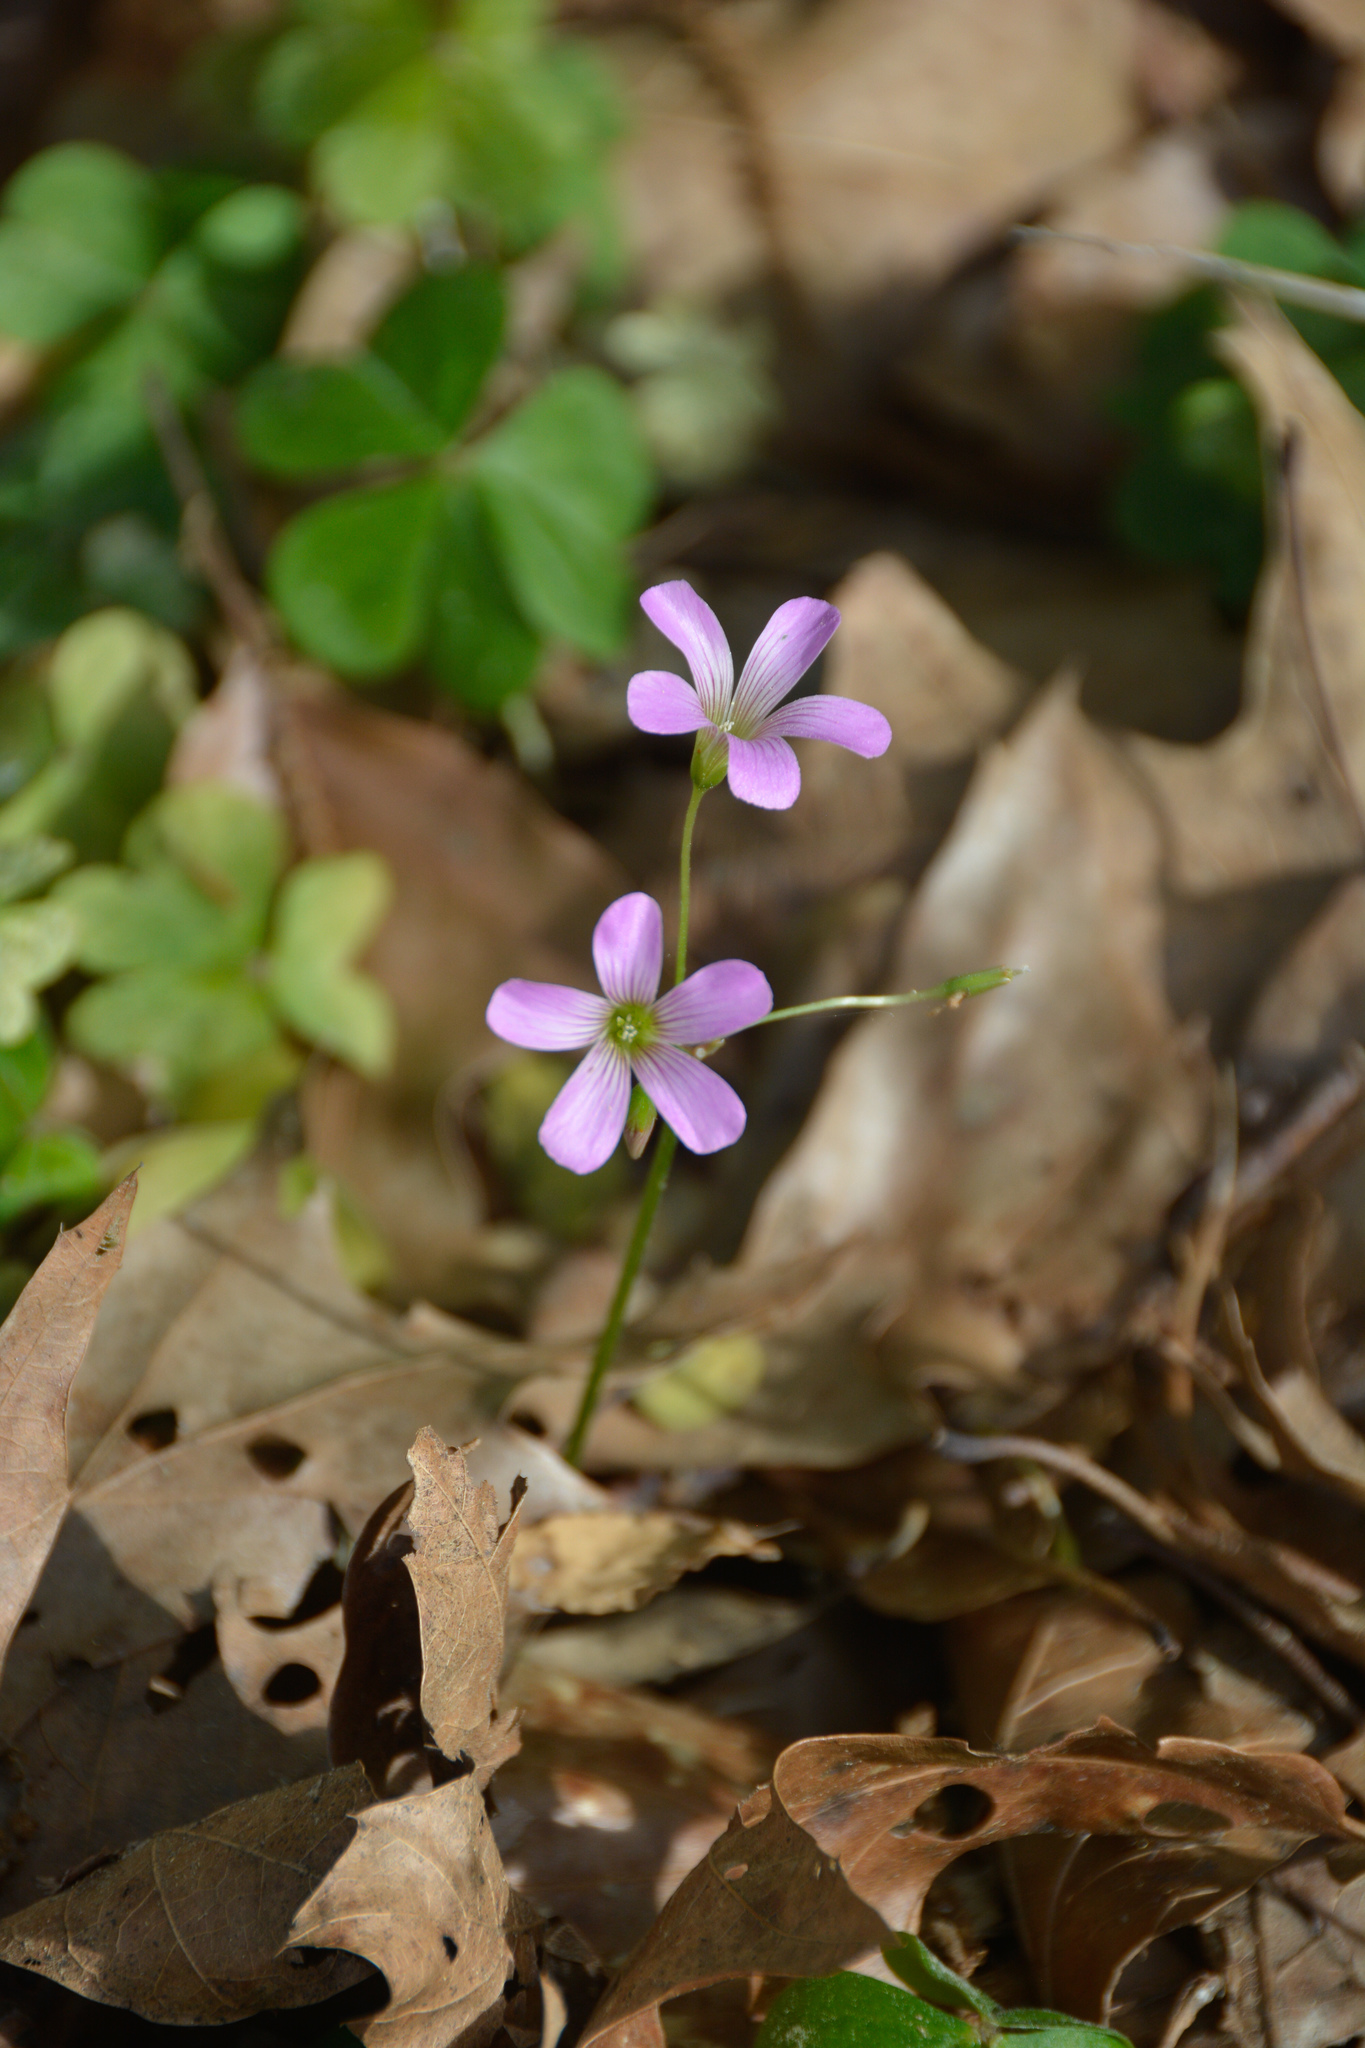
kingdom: Plantae
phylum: Tracheophyta
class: Magnoliopsida
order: Oxalidales
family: Oxalidaceae
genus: Oxalis
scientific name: Oxalis debilis
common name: Large-flowered pink-sorrel
